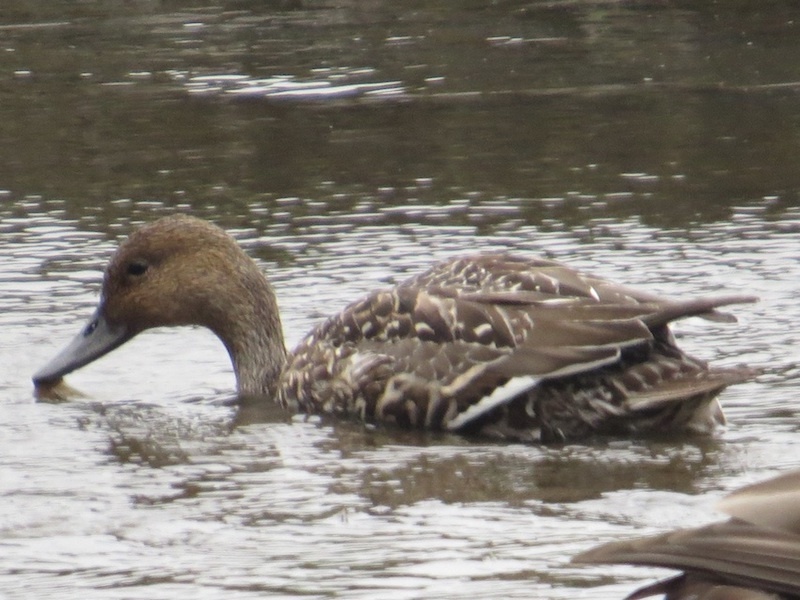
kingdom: Animalia
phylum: Chordata
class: Aves
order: Anseriformes
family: Anatidae
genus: Anas
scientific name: Anas acuta
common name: Northern pintail
